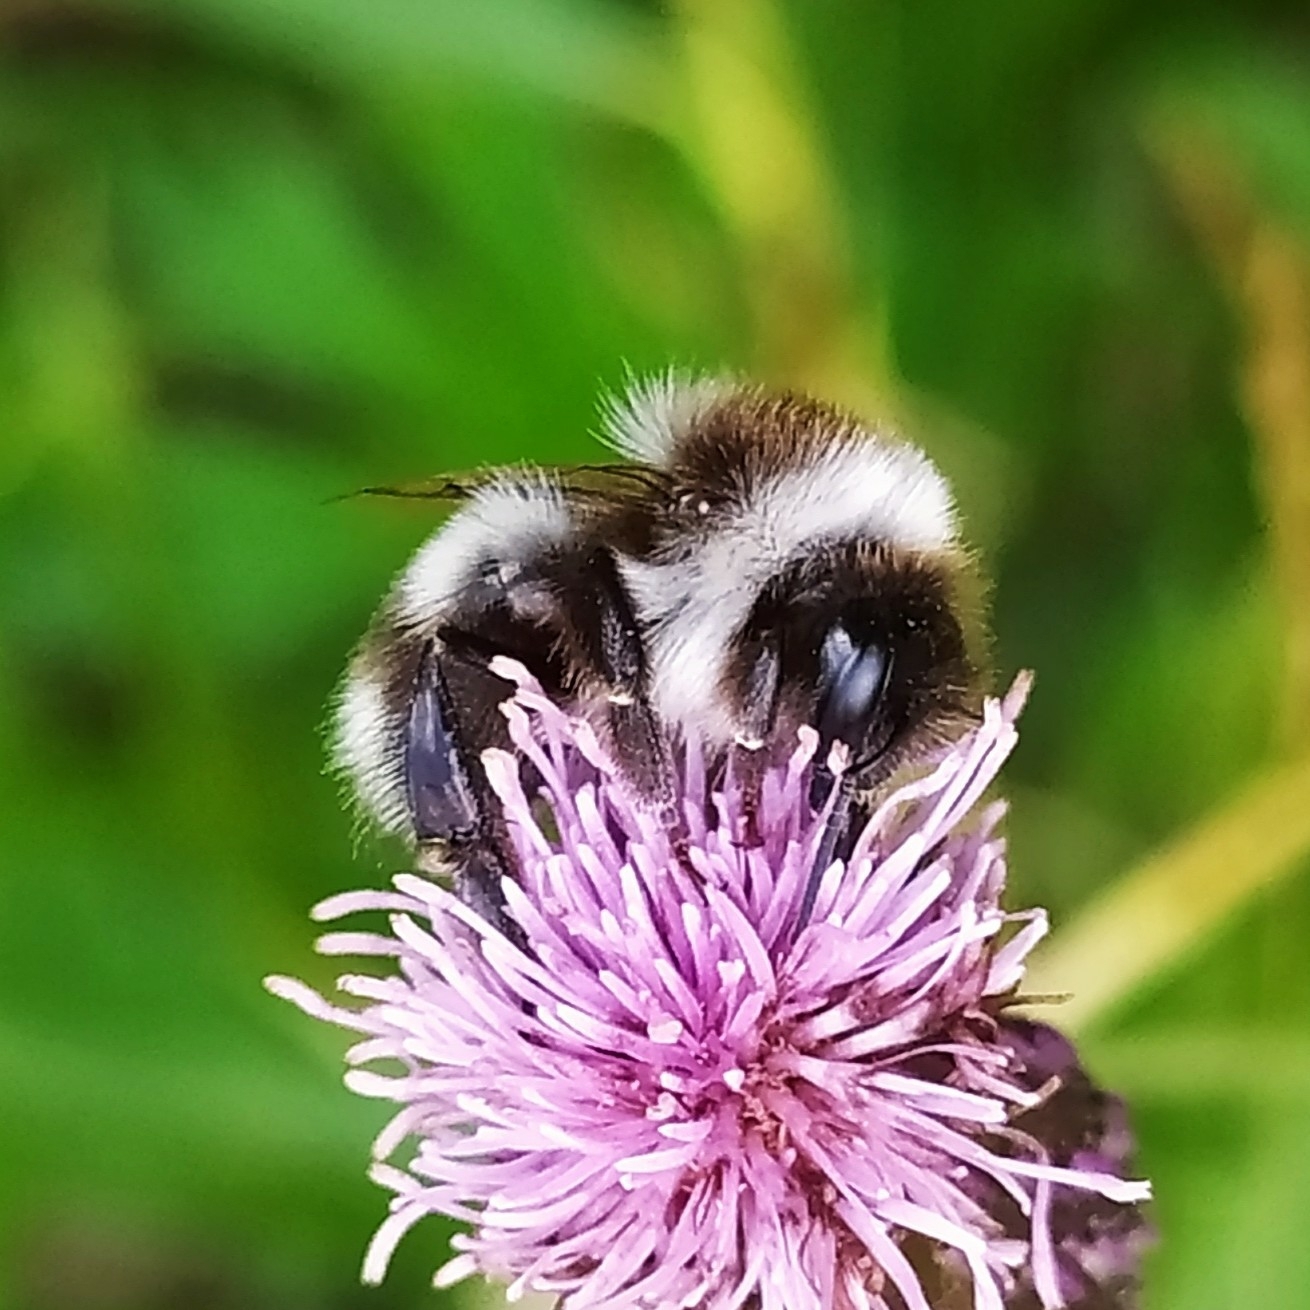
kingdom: Animalia
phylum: Arthropoda
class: Insecta
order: Hymenoptera
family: Apidae
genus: Bombus
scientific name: Bombus patagiatus
